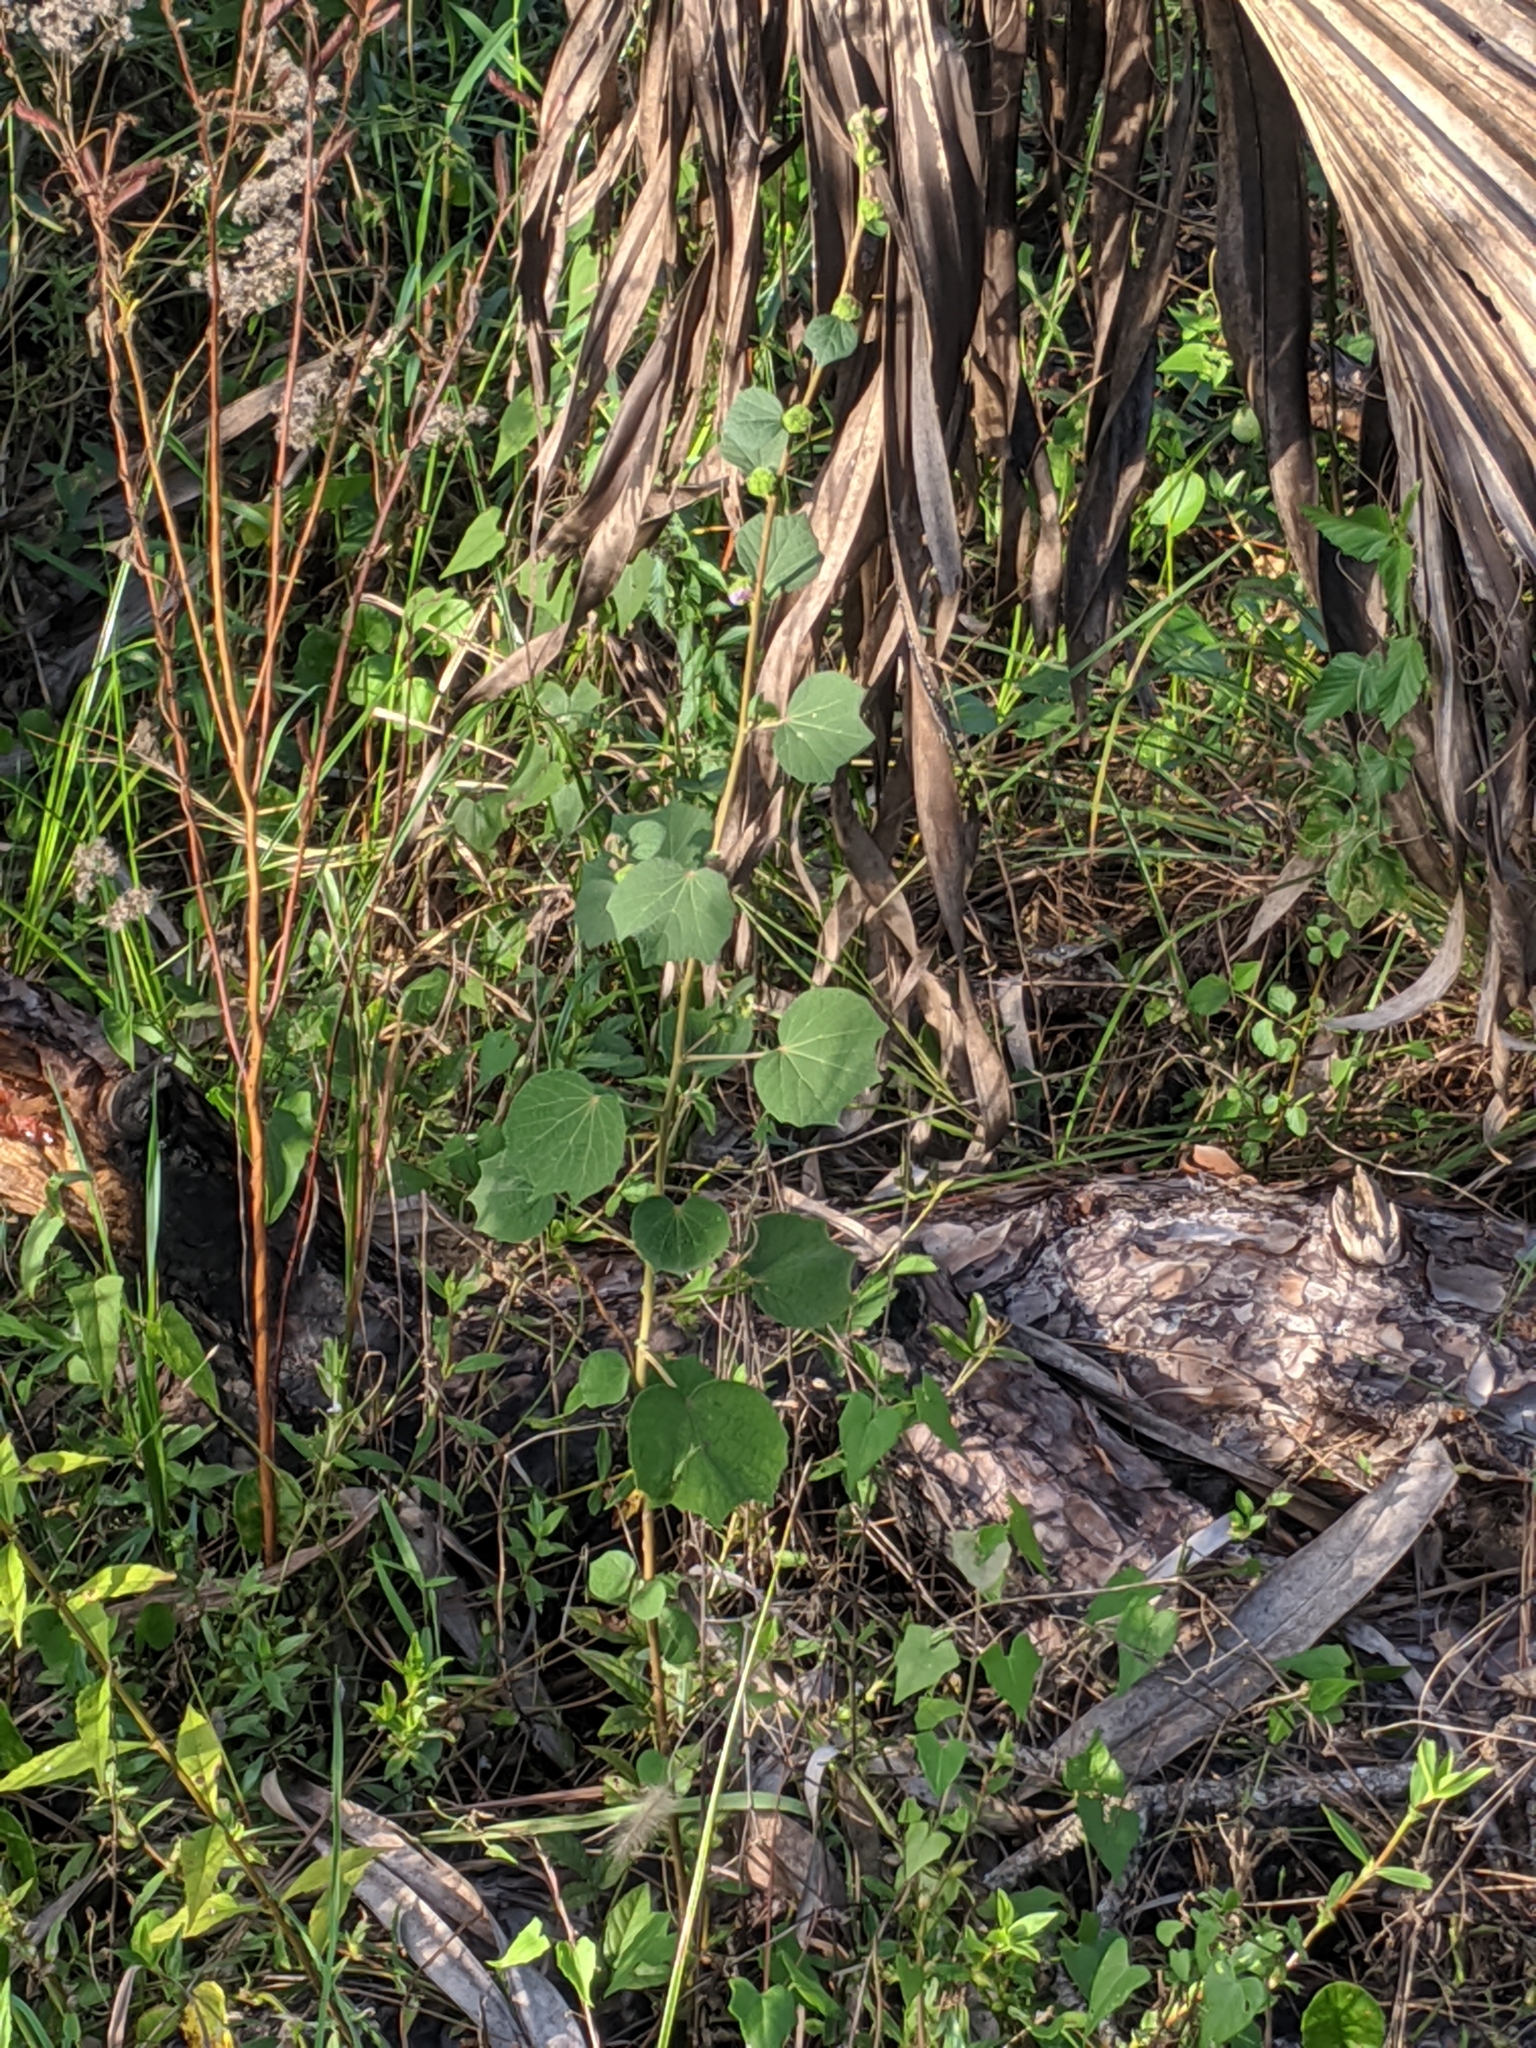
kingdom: Plantae
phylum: Tracheophyta
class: Magnoliopsida
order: Malvales
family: Malvaceae
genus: Urena
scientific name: Urena lobata
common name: Caesarweed
